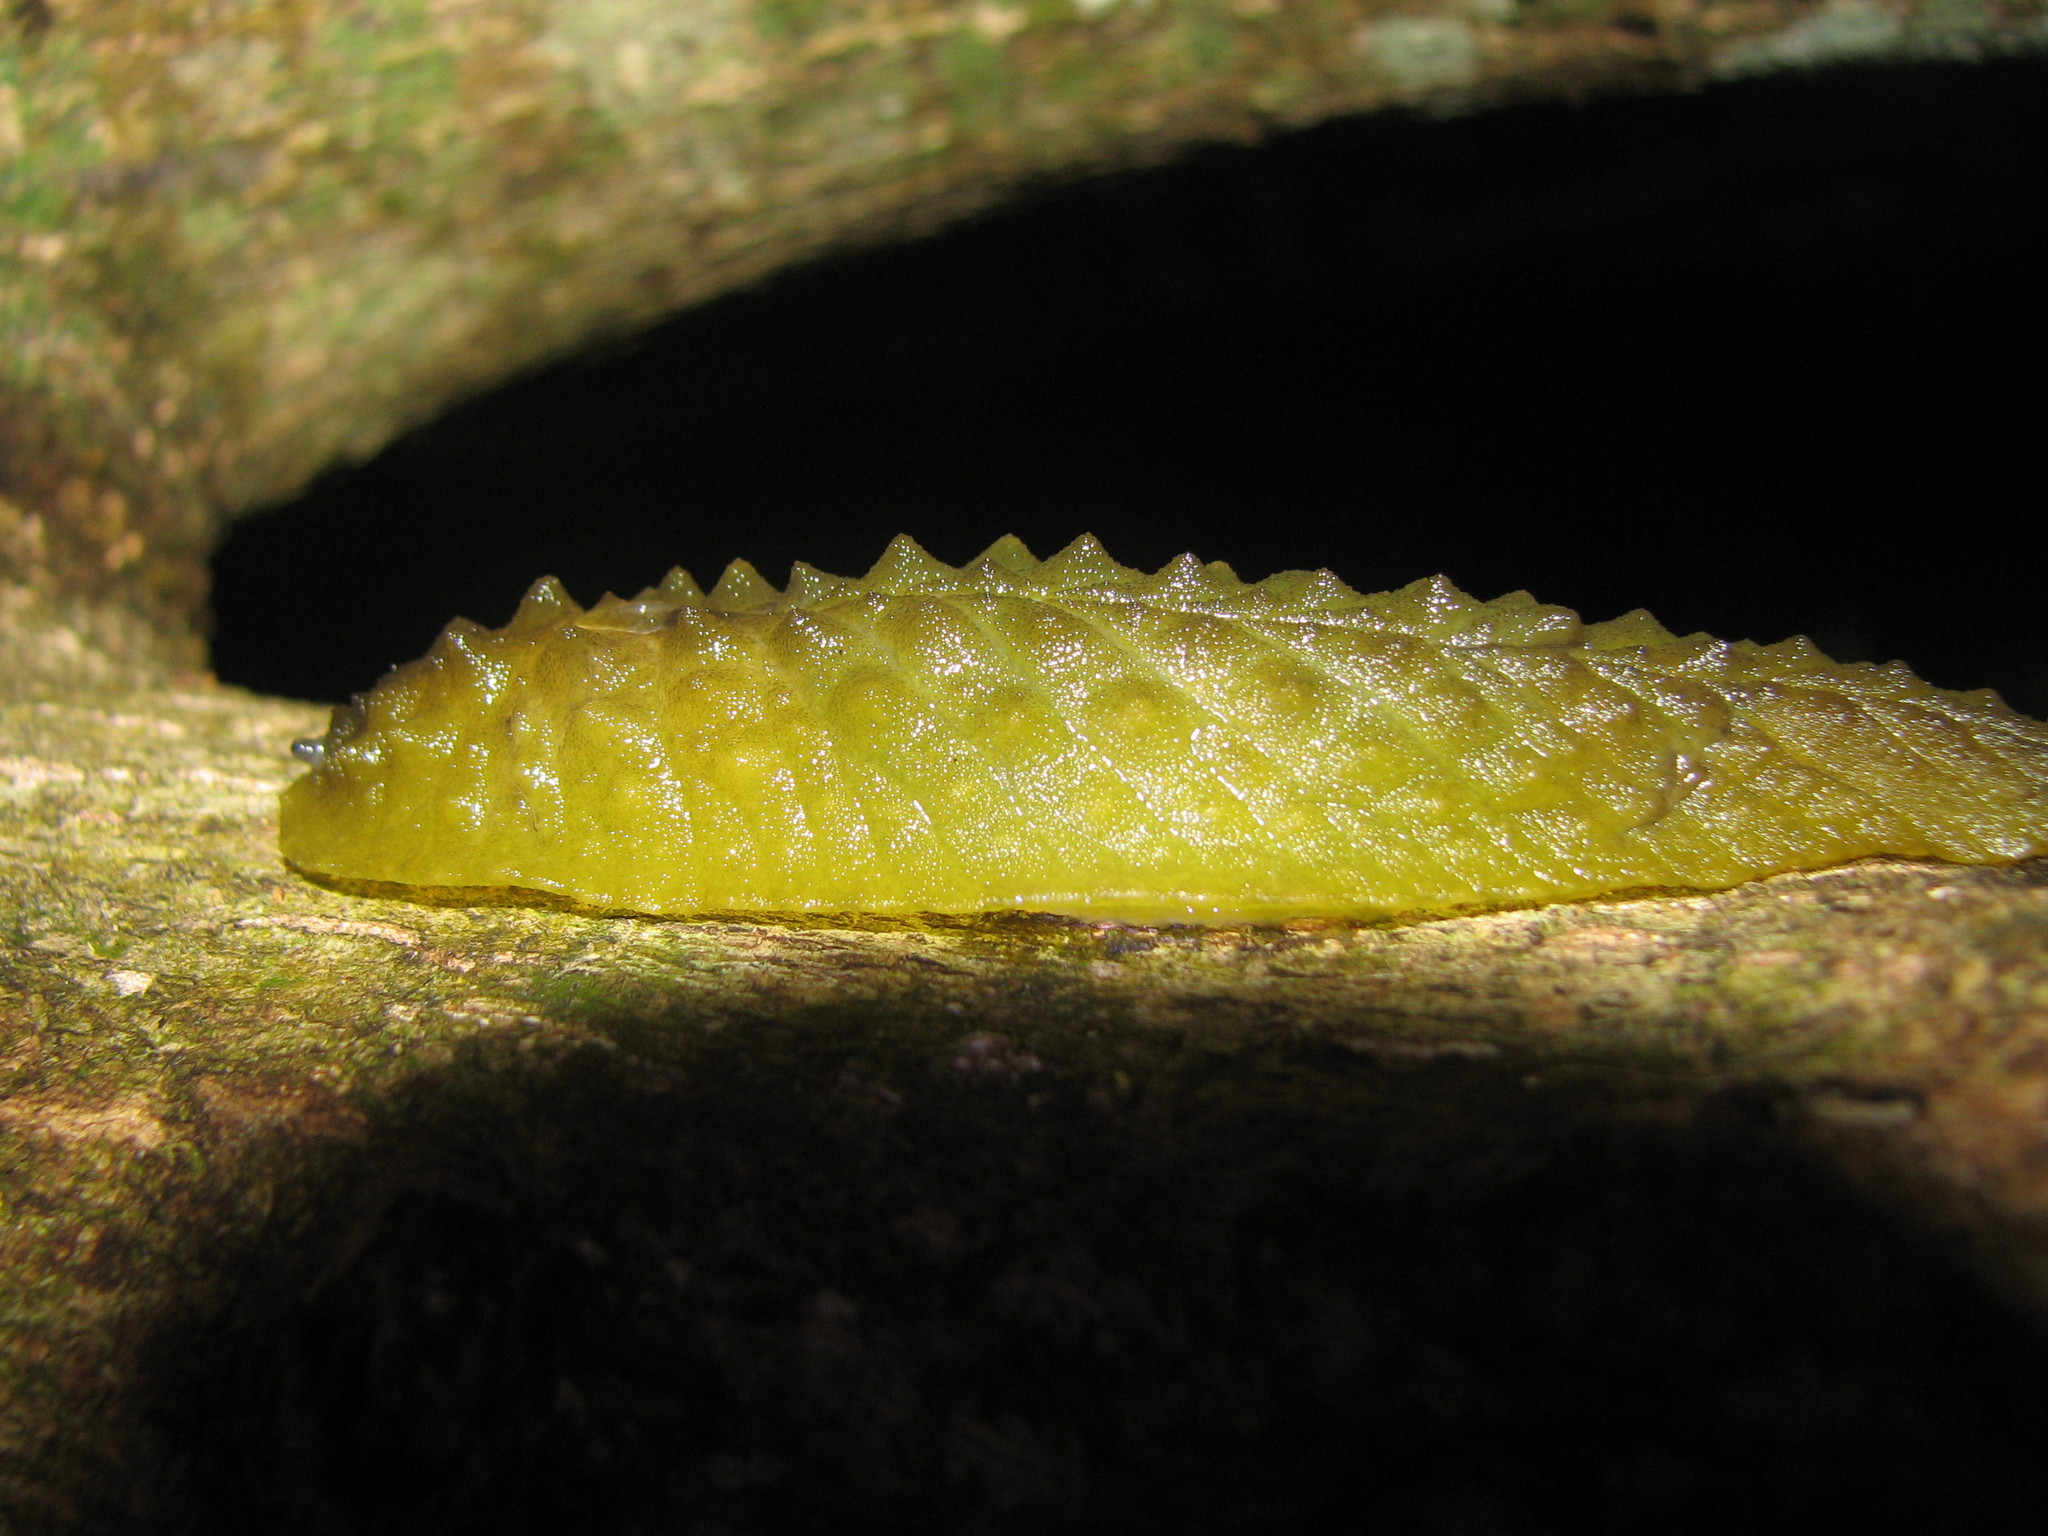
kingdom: Animalia
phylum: Mollusca
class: Gastropoda
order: Stylommatophora
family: Athoracophoridae
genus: Athoracophorus
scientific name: Athoracophorus papillatus
